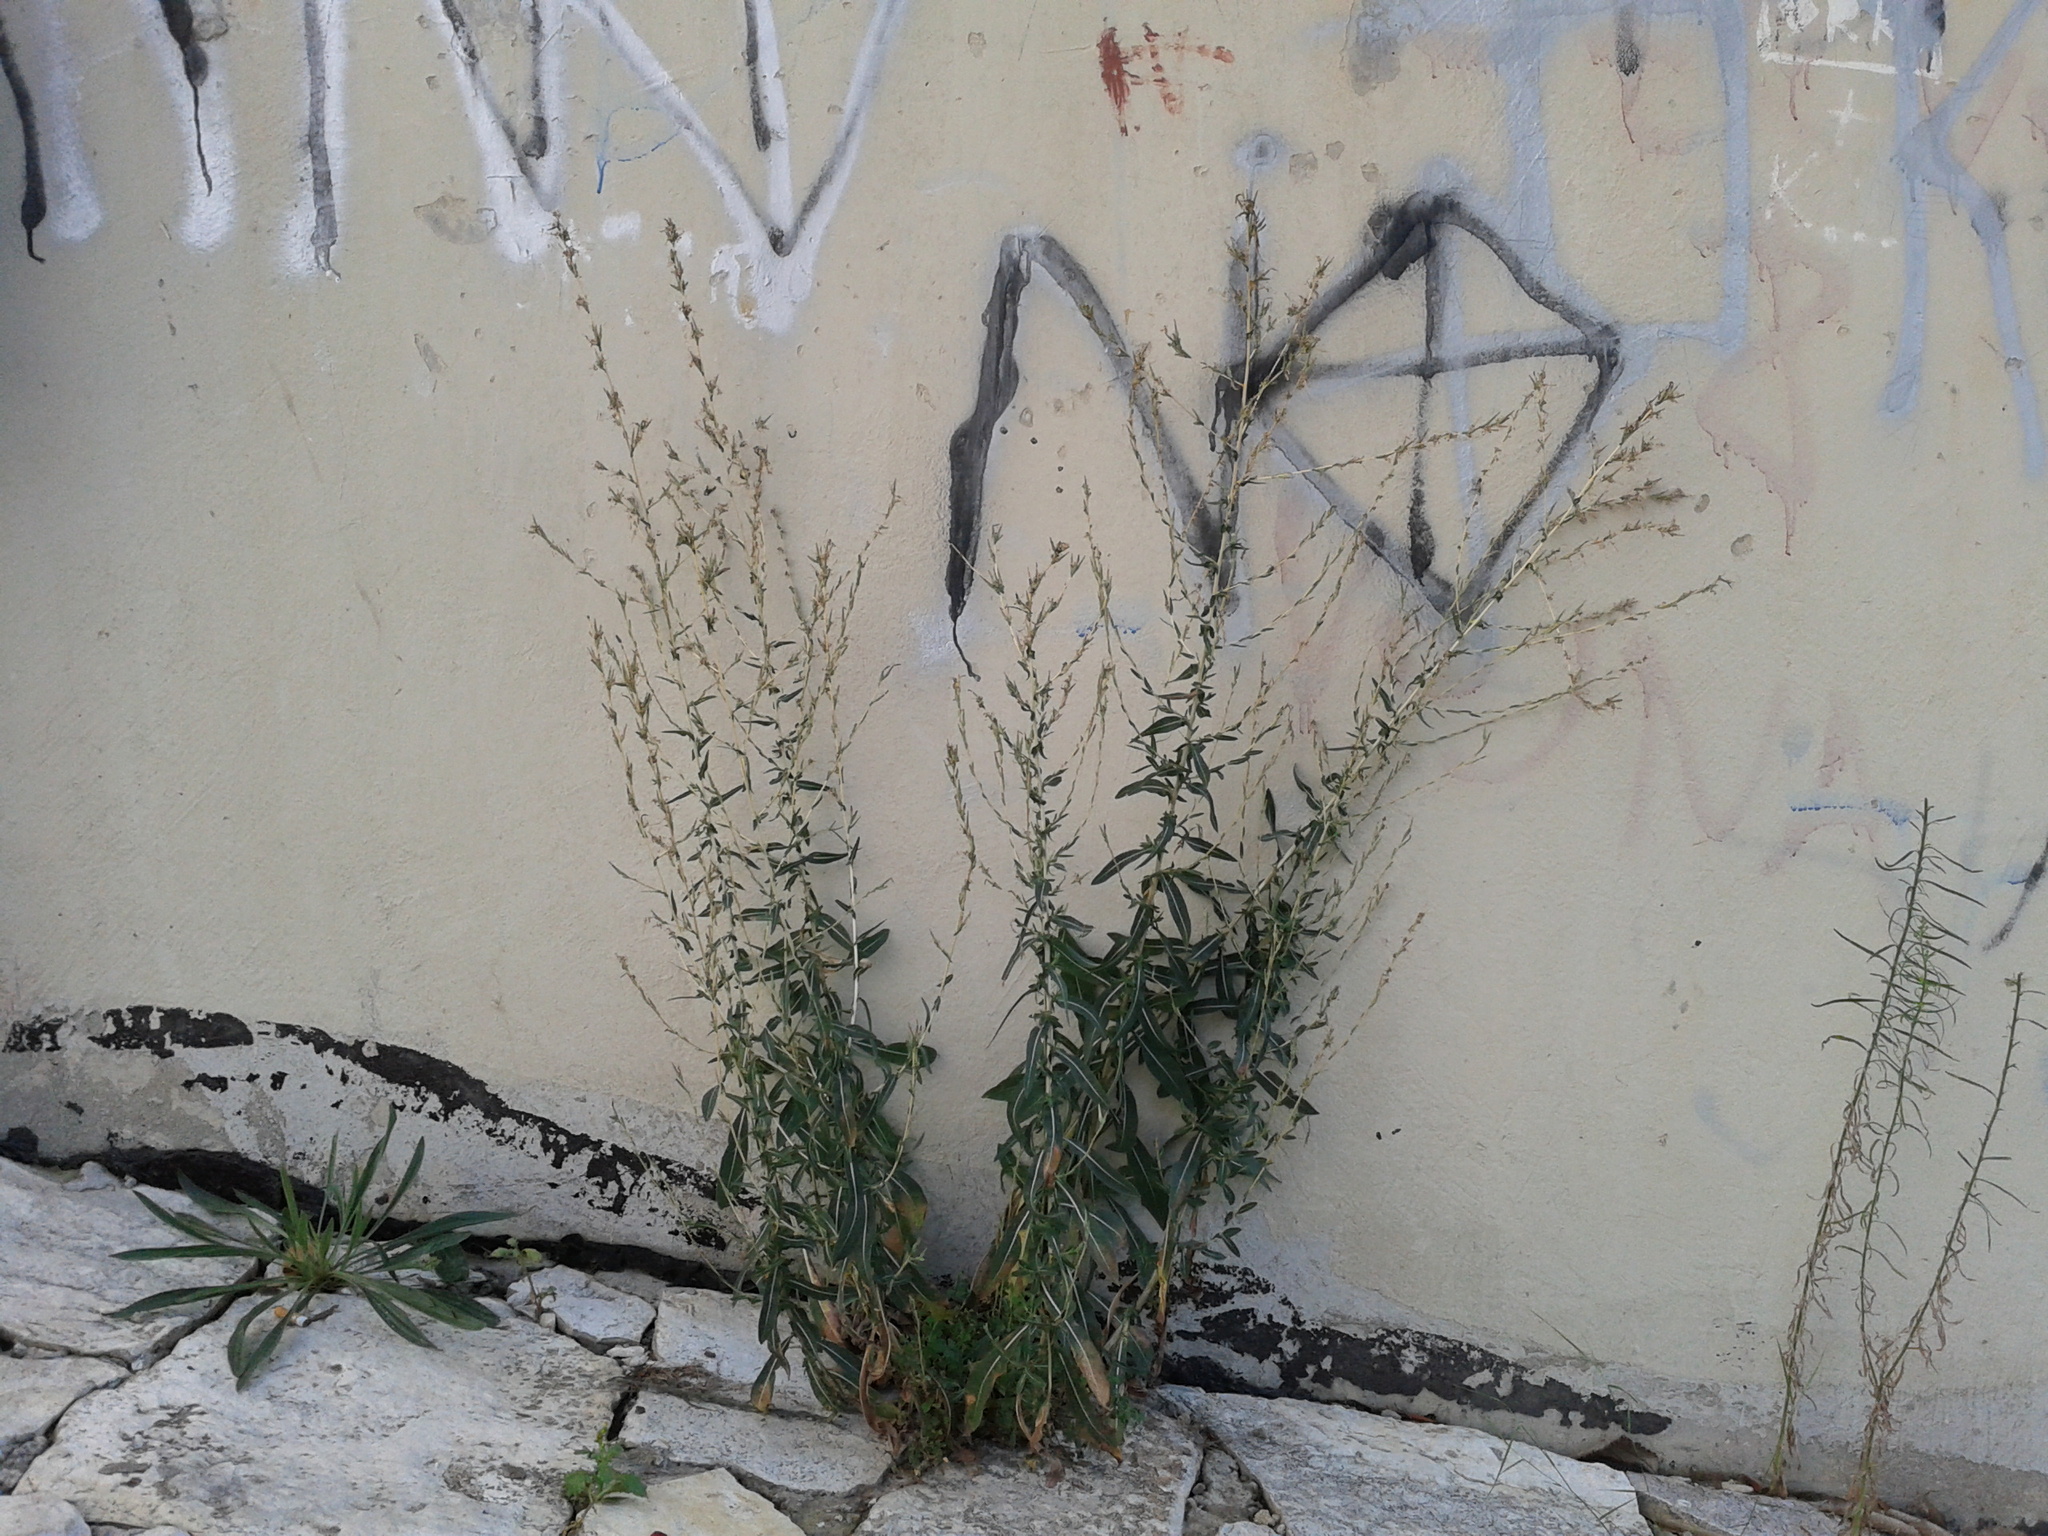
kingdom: Plantae
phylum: Tracheophyta
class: Magnoliopsida
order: Asterales
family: Asteraceae
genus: Lactuca
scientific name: Lactuca serriola
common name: Prickly lettuce
